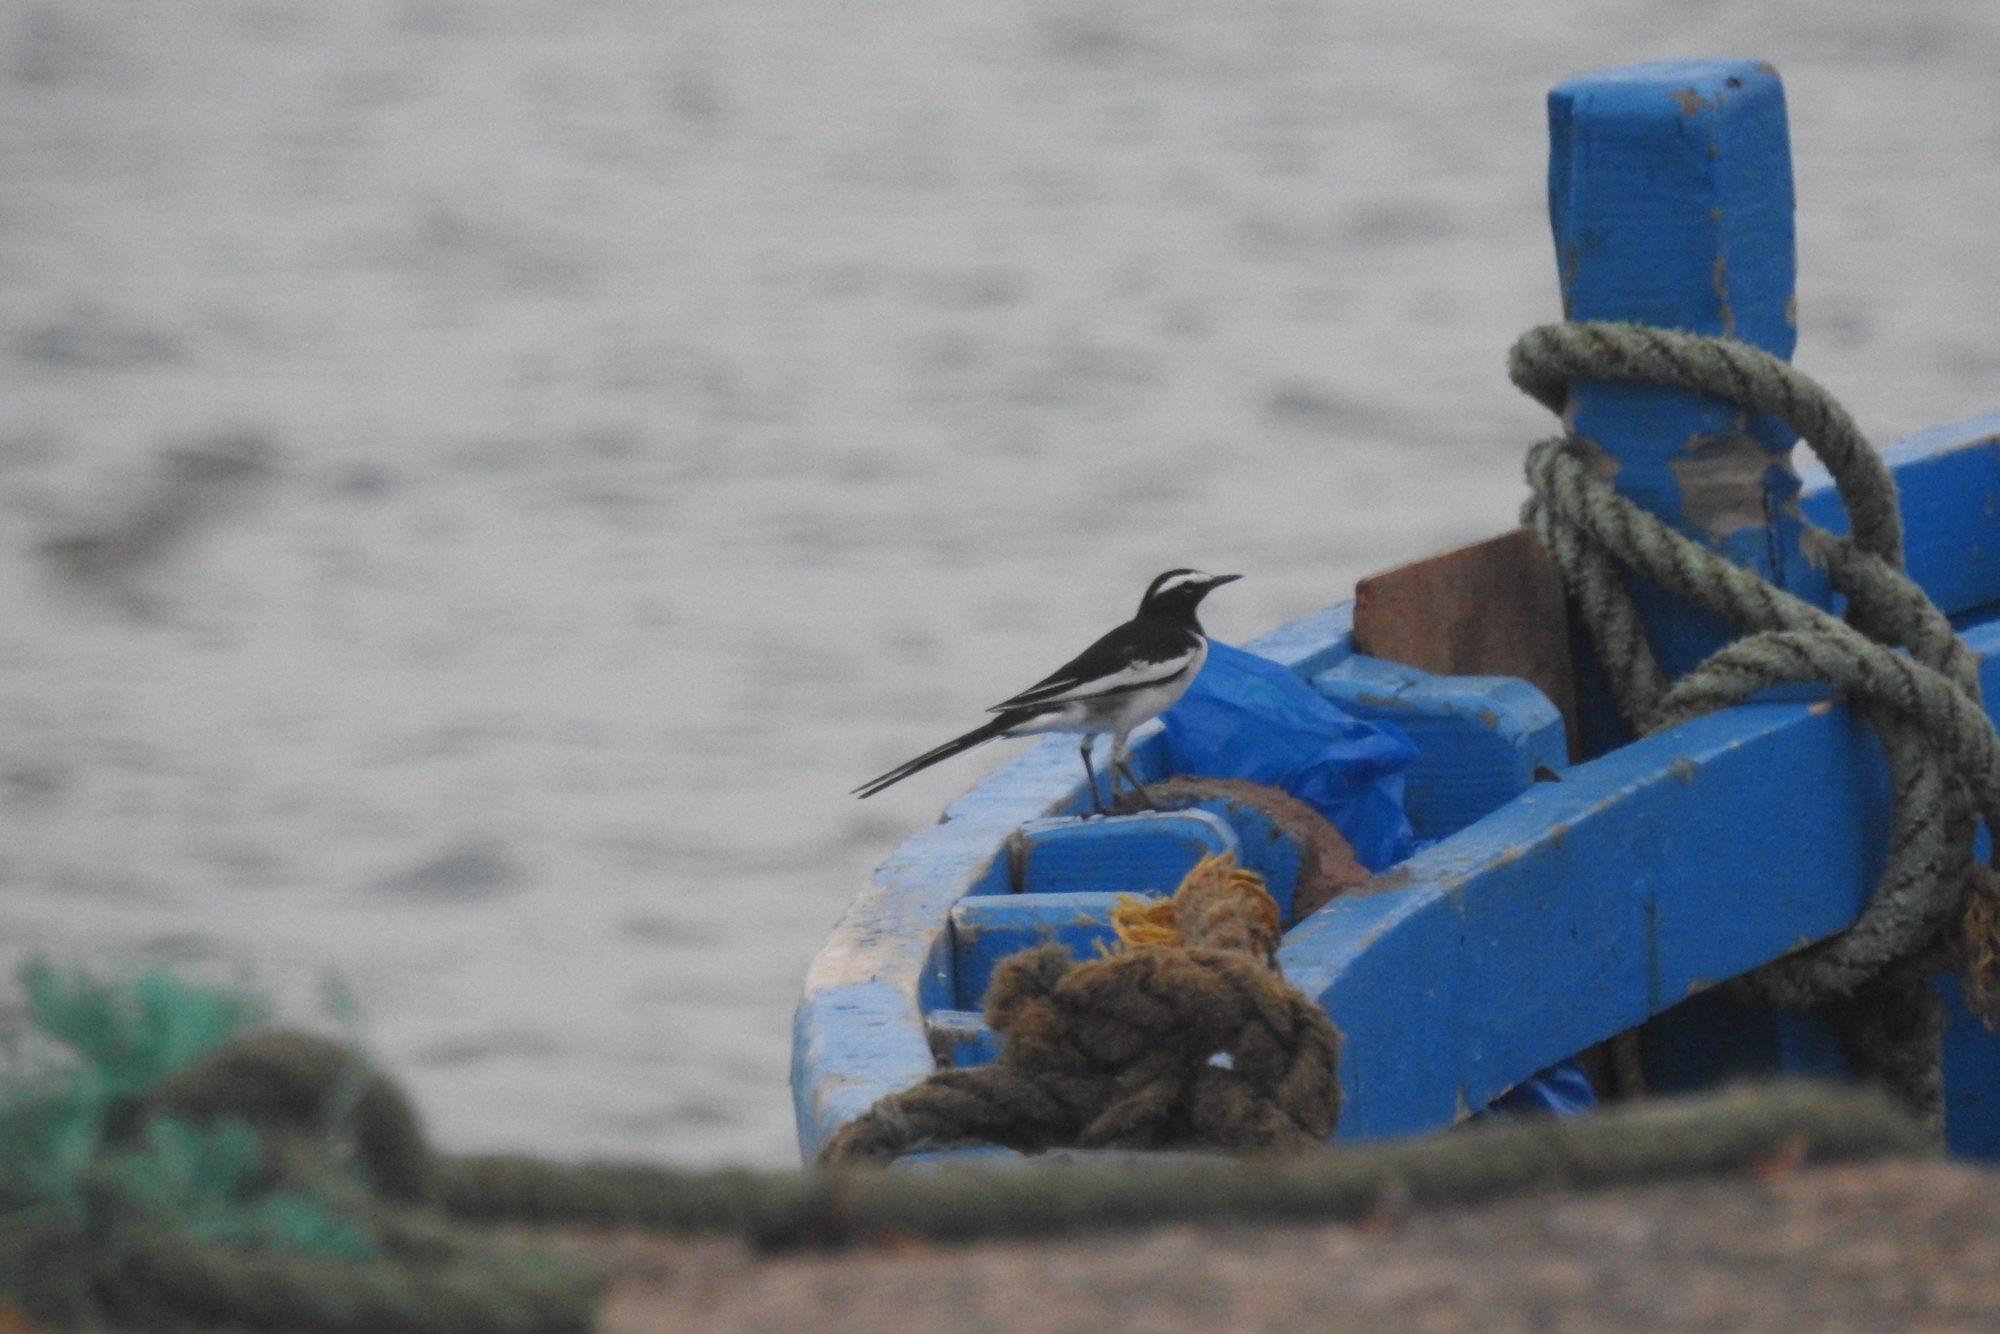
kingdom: Animalia
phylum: Chordata
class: Aves
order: Passeriformes
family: Motacillidae
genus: Motacilla
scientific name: Motacilla maderaspatensis
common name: White-browed wagtail
